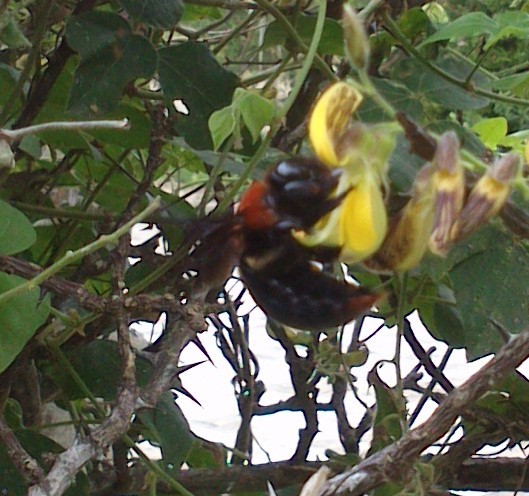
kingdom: Animalia
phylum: Arthropoda
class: Insecta
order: Hymenoptera
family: Apidae
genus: Xylocopa
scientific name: Xylocopa flavorufa
